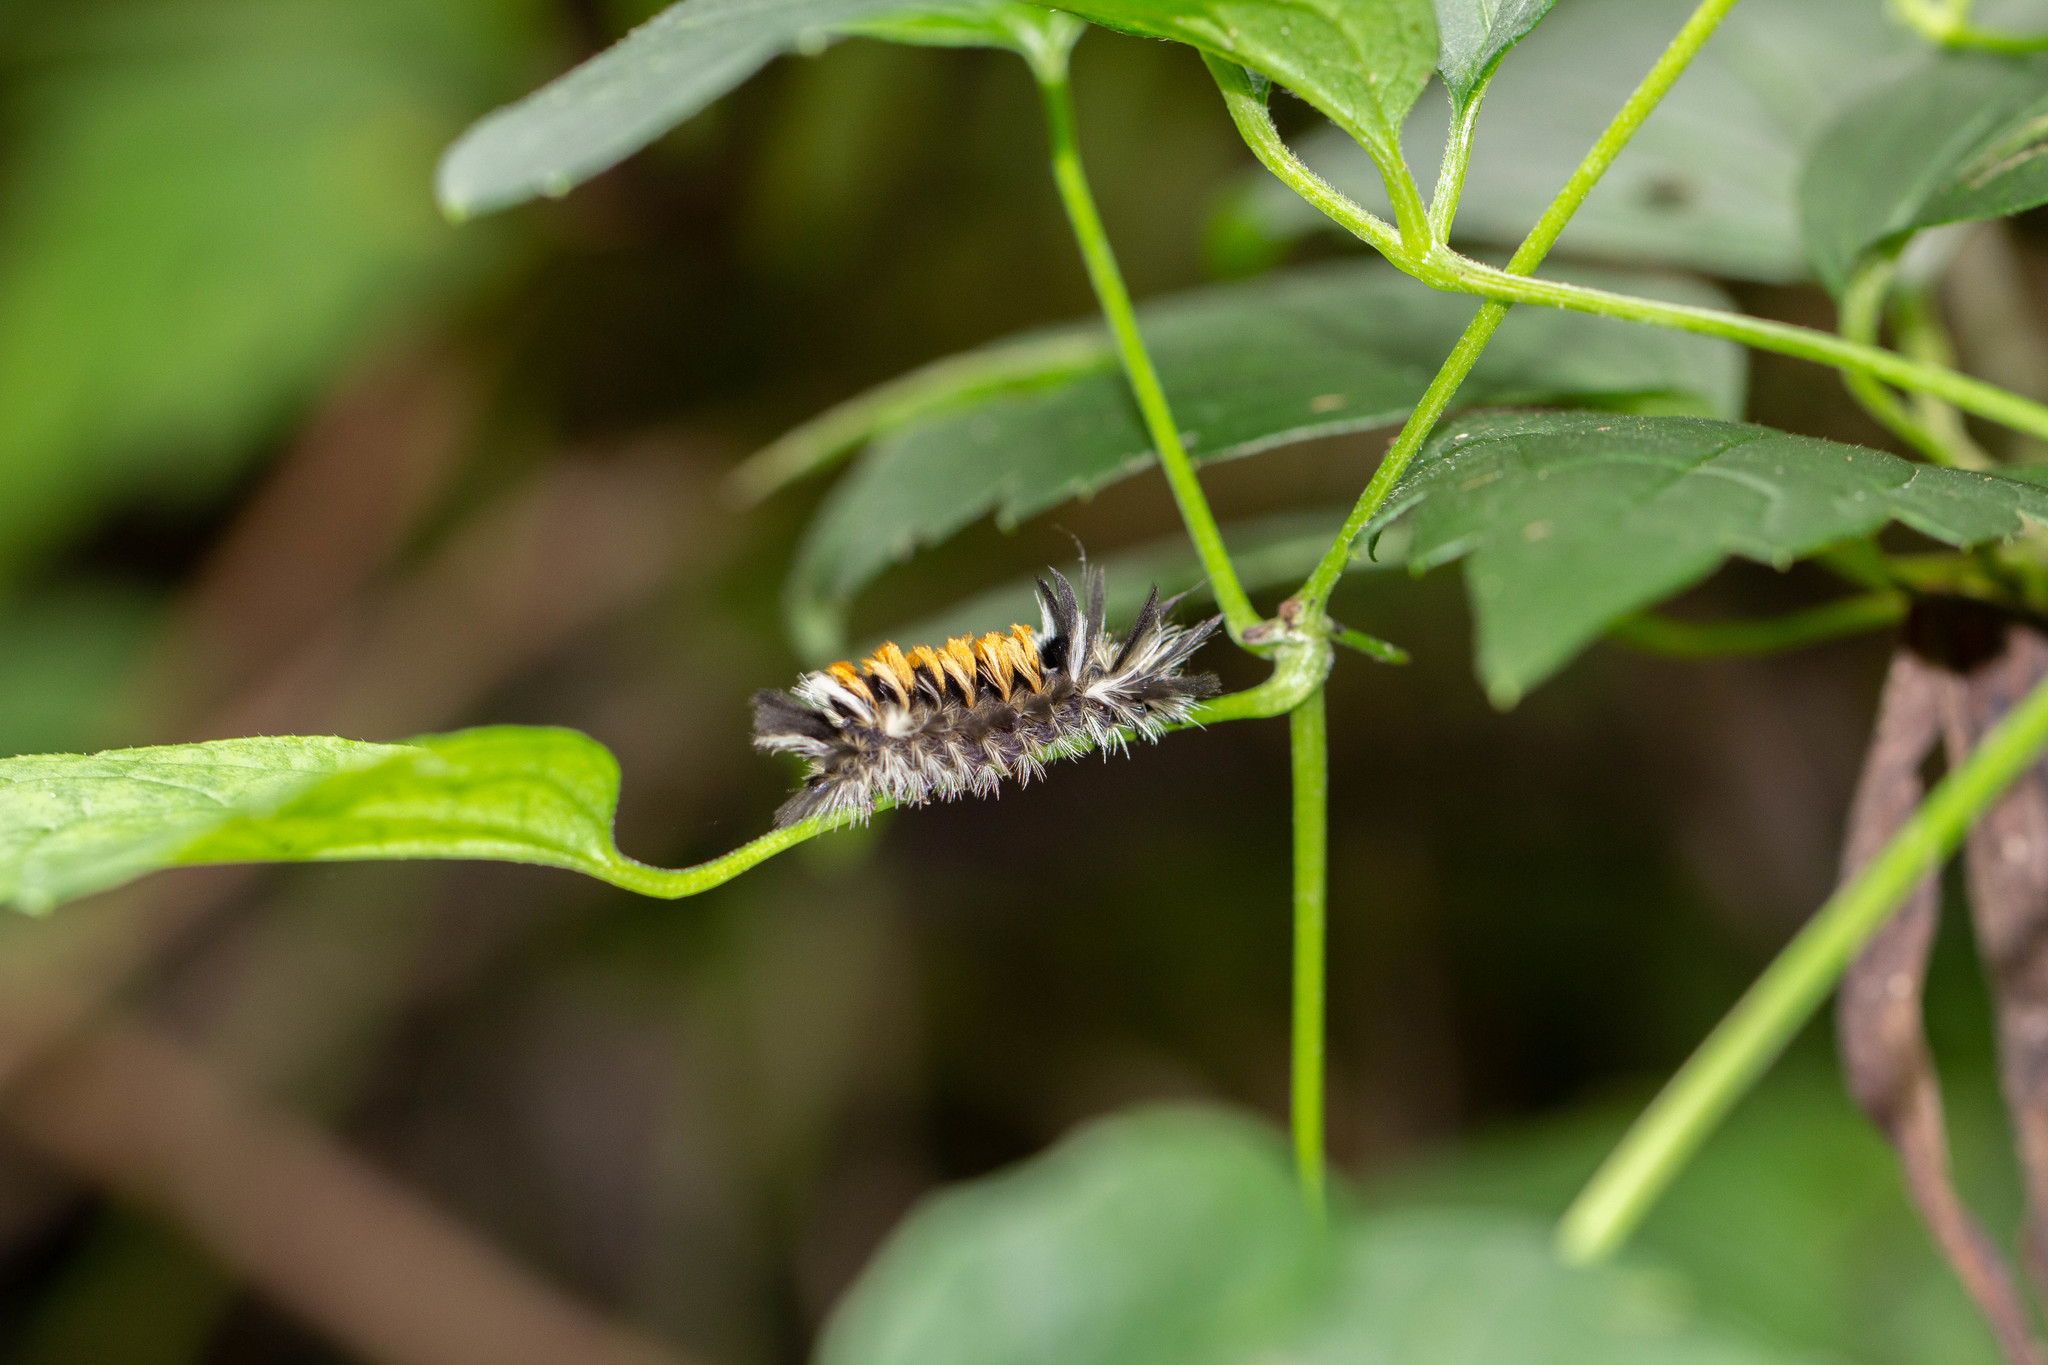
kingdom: Animalia
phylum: Arthropoda
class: Insecta
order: Lepidoptera
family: Erebidae
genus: Euchaetes
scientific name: Euchaetes egle
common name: Milkweed tussock moth
